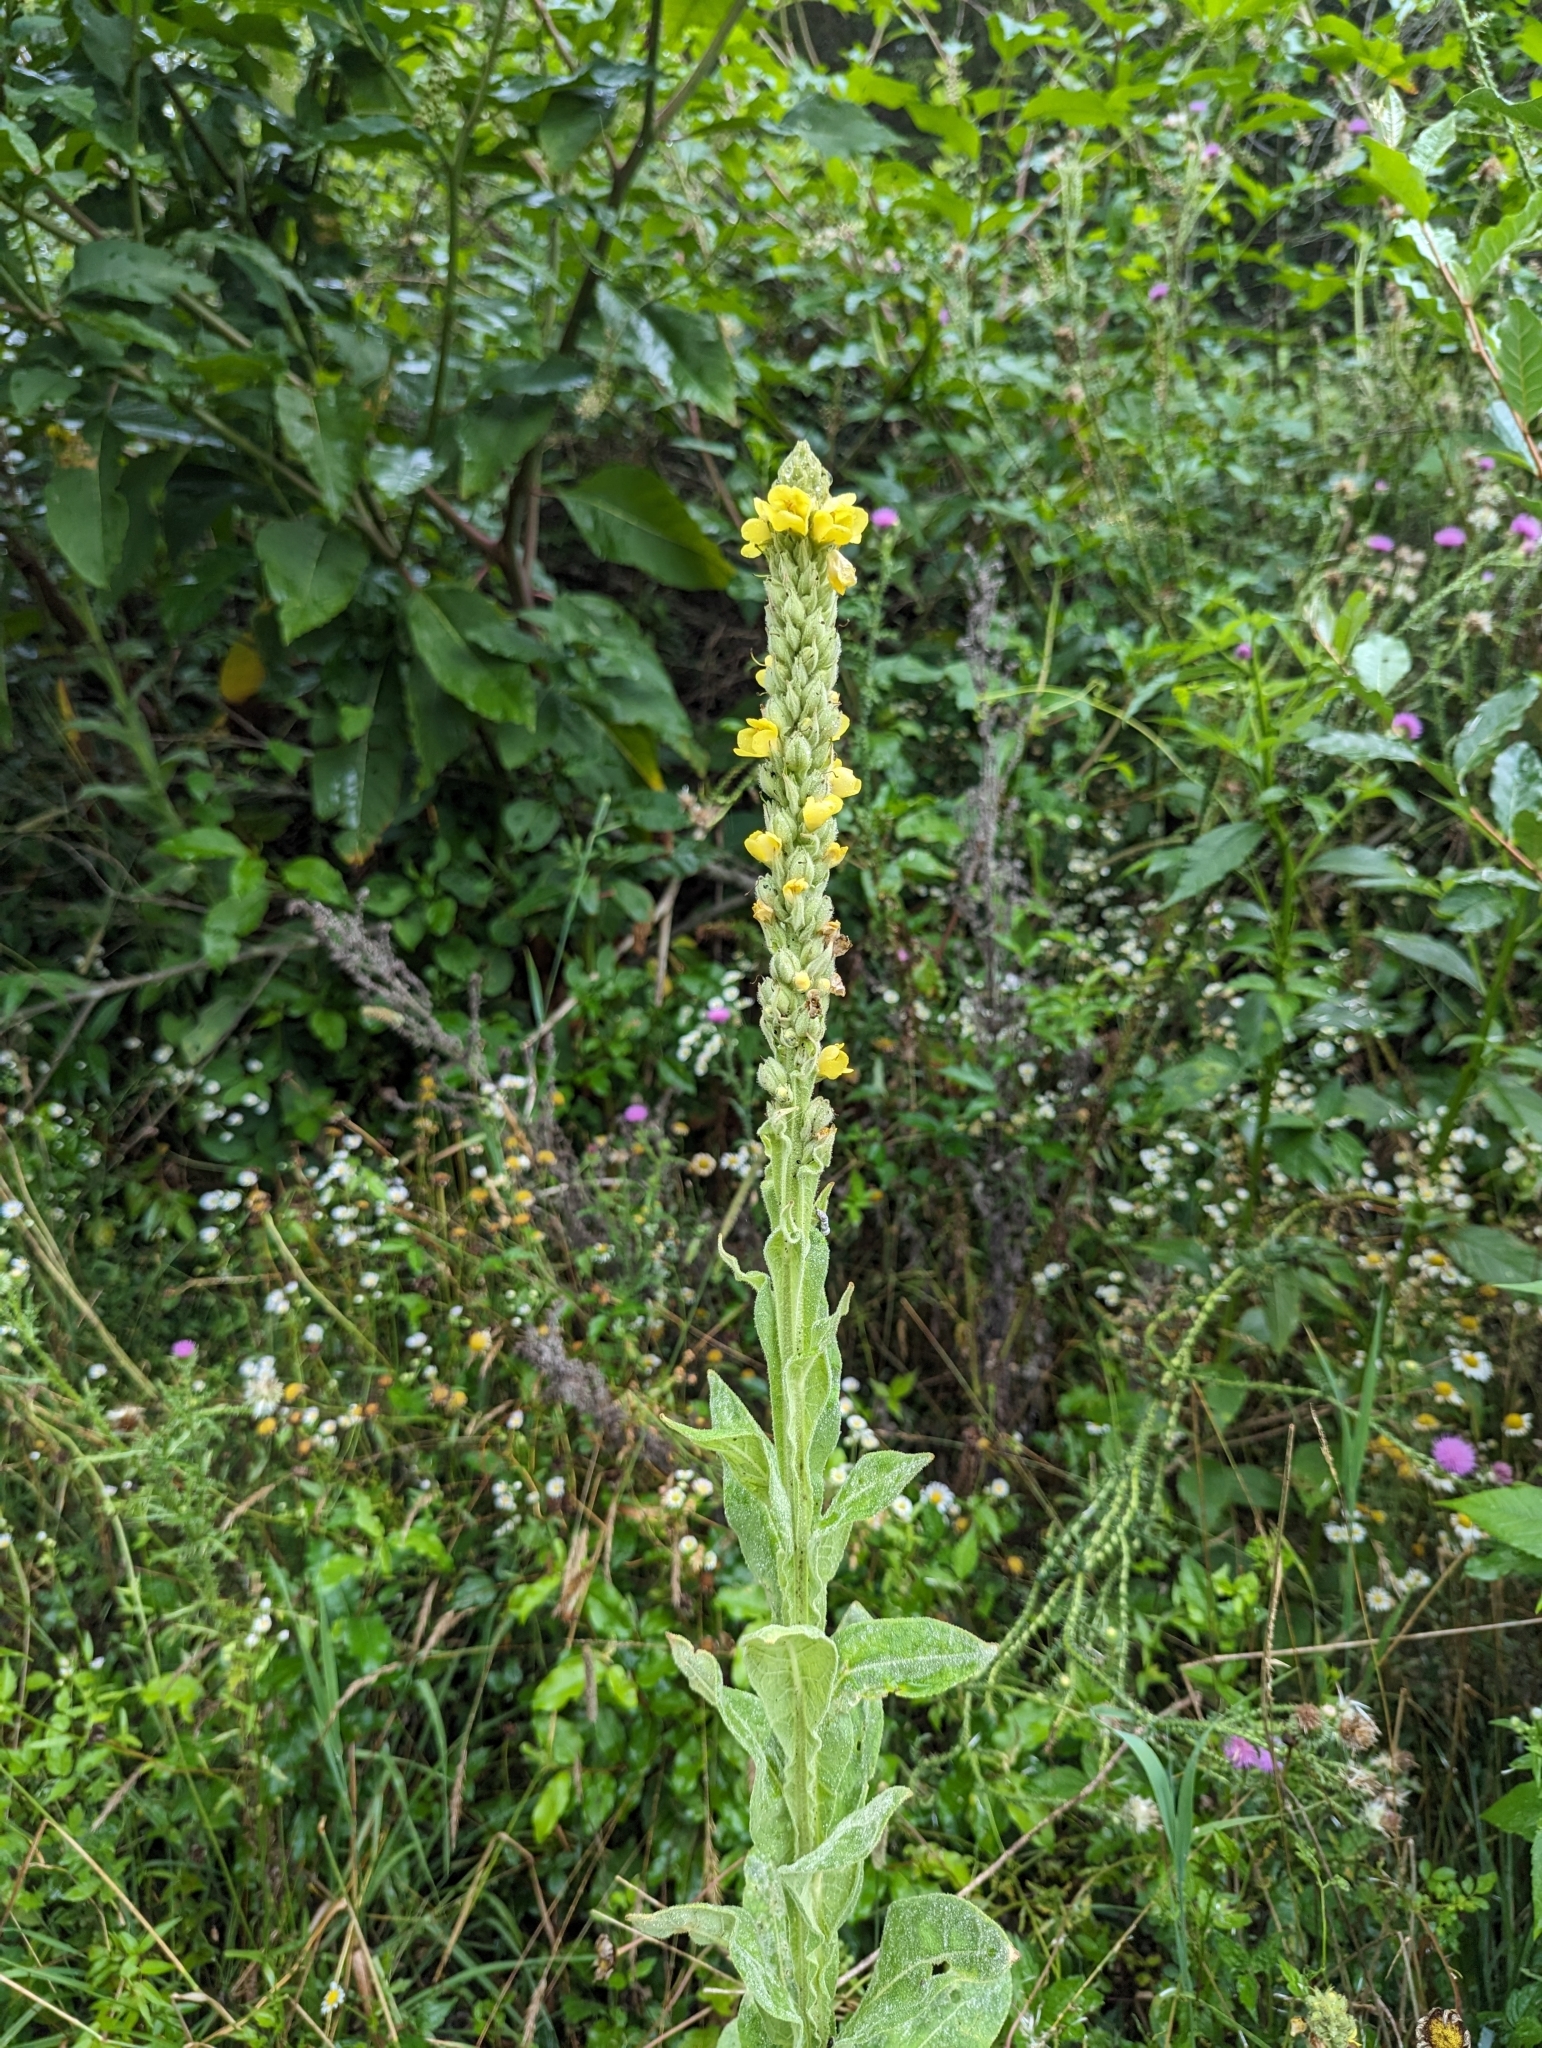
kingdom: Plantae
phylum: Tracheophyta
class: Magnoliopsida
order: Lamiales
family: Scrophulariaceae
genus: Verbascum
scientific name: Verbascum thapsus
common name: Common mullein
